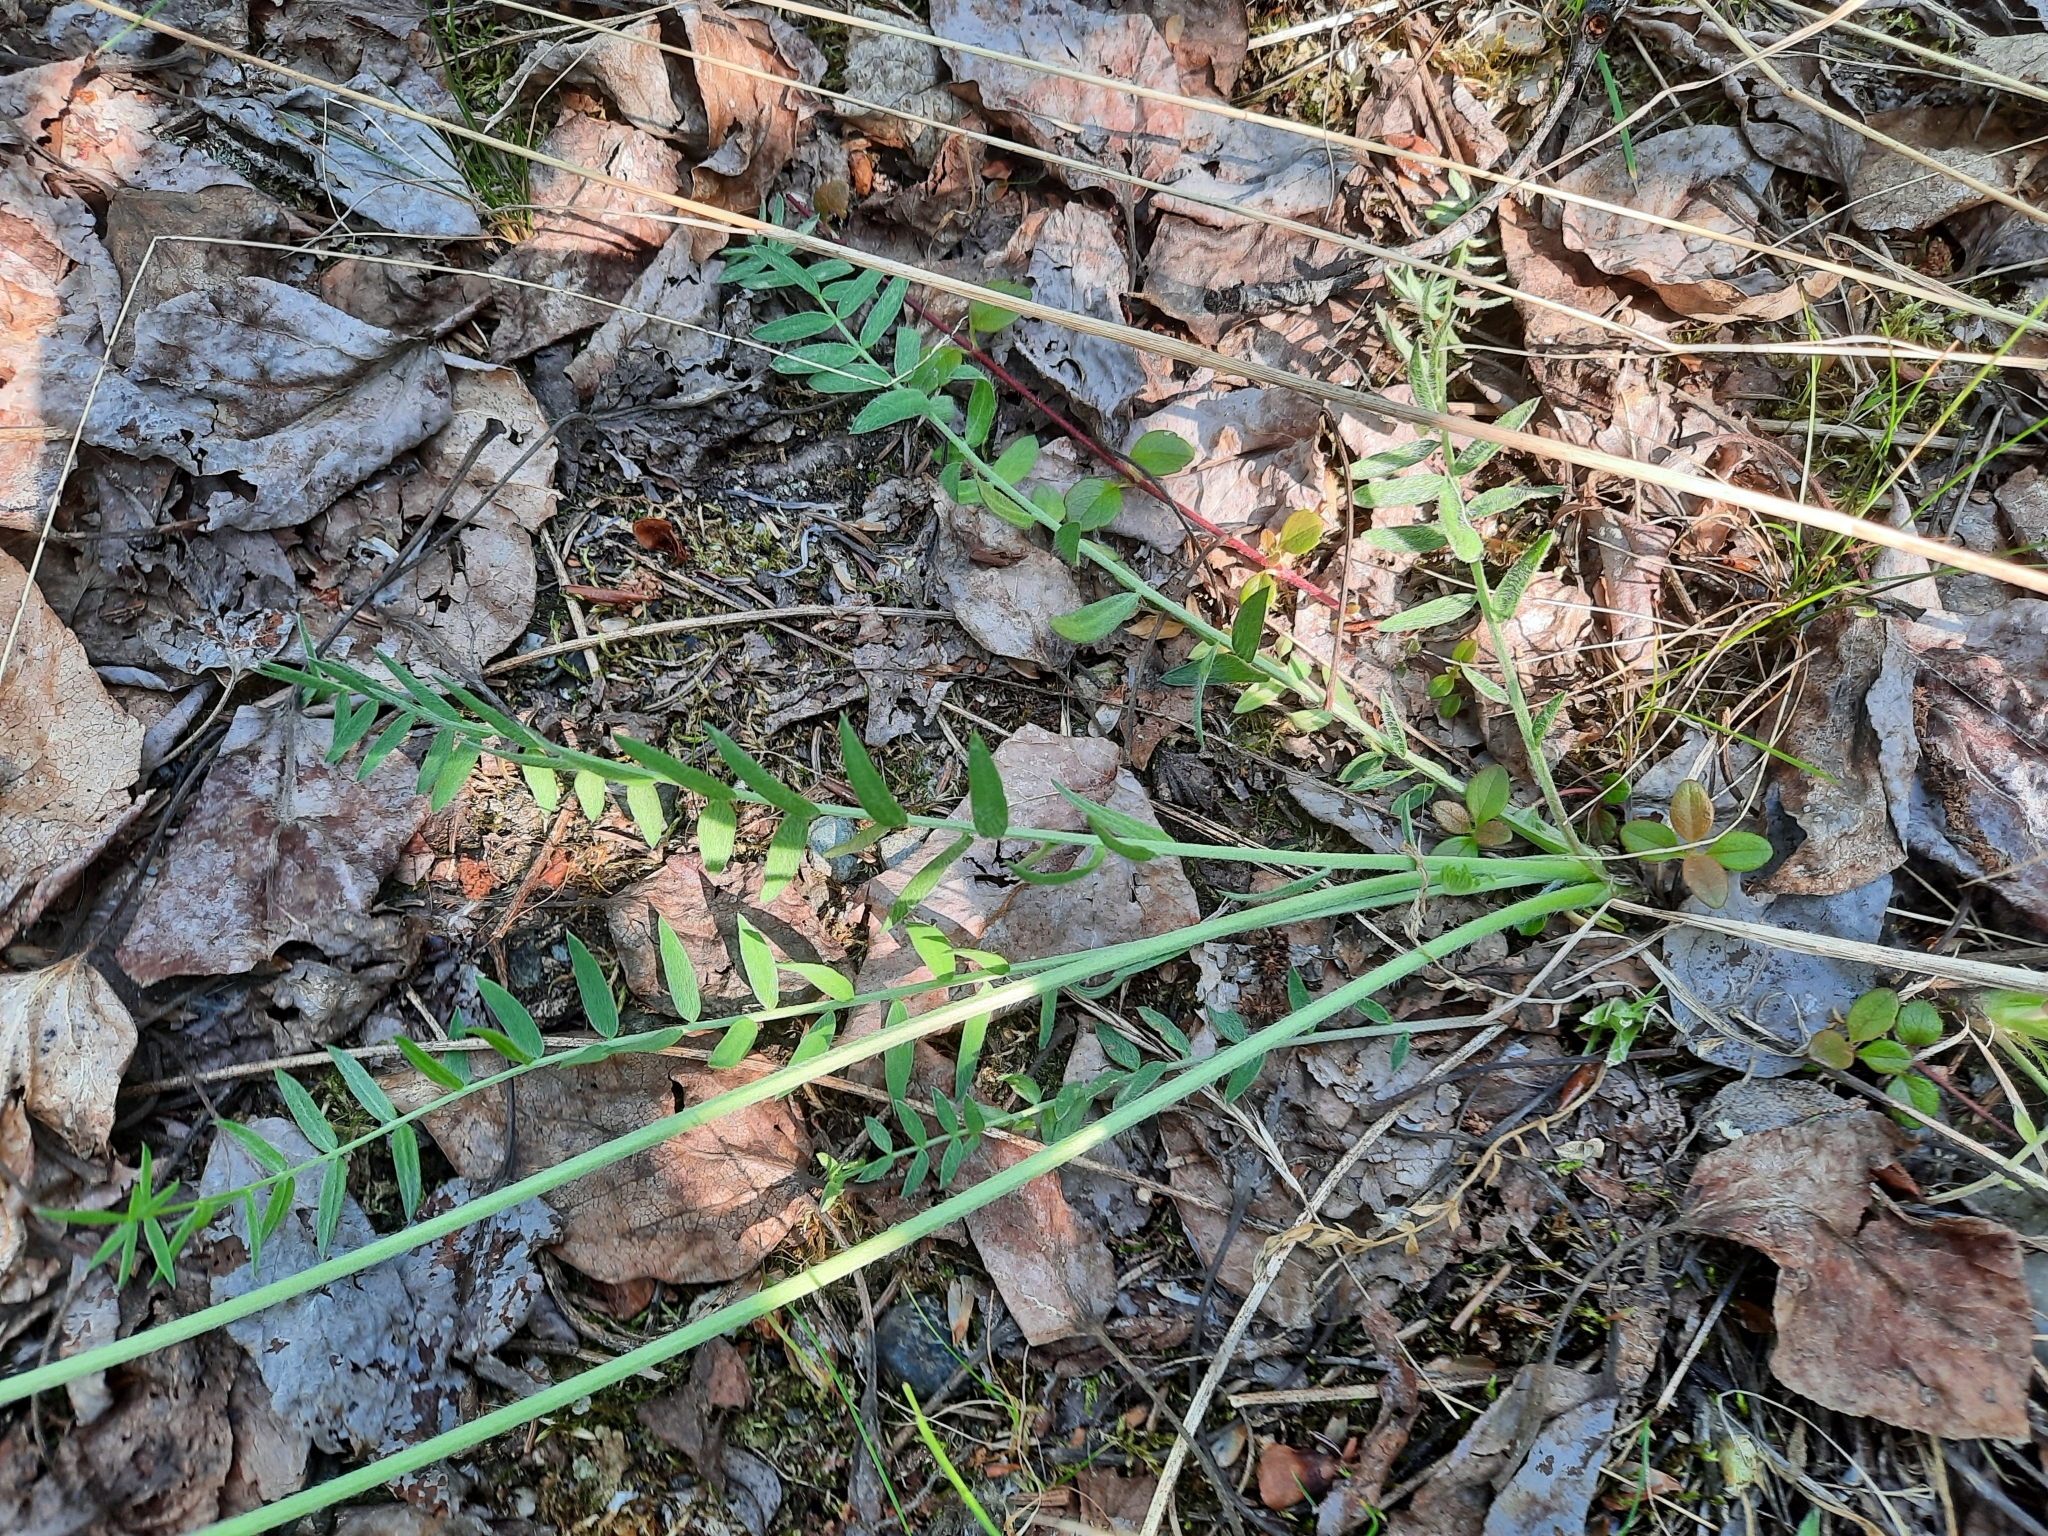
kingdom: Plantae
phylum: Tracheophyta
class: Magnoliopsida
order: Fabales
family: Fabaceae
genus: Oxytropis
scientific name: Oxytropis campestris
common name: Field locoweed
